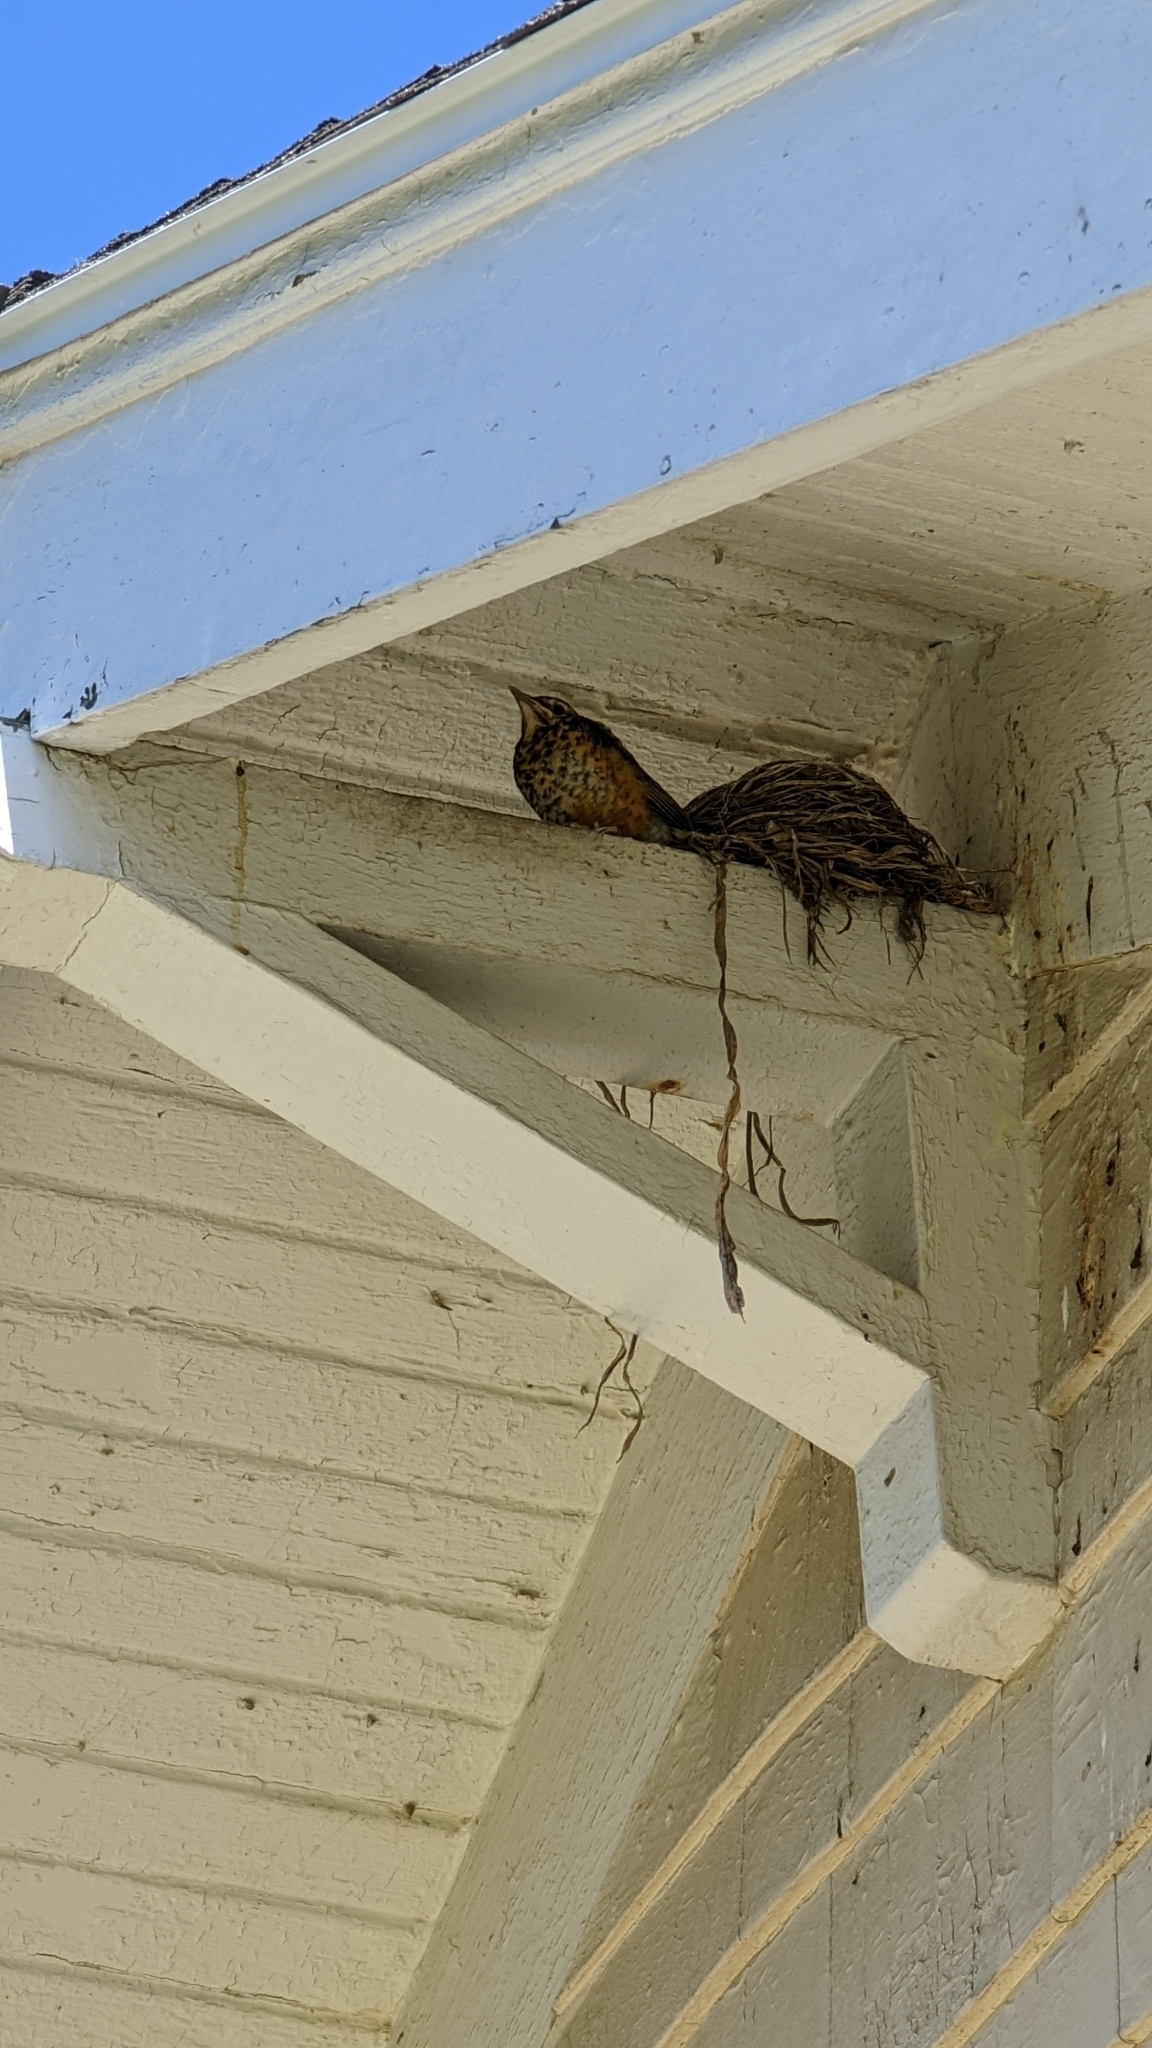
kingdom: Animalia
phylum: Chordata
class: Aves
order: Passeriformes
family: Turdidae
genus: Turdus
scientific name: Turdus migratorius
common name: American robin
